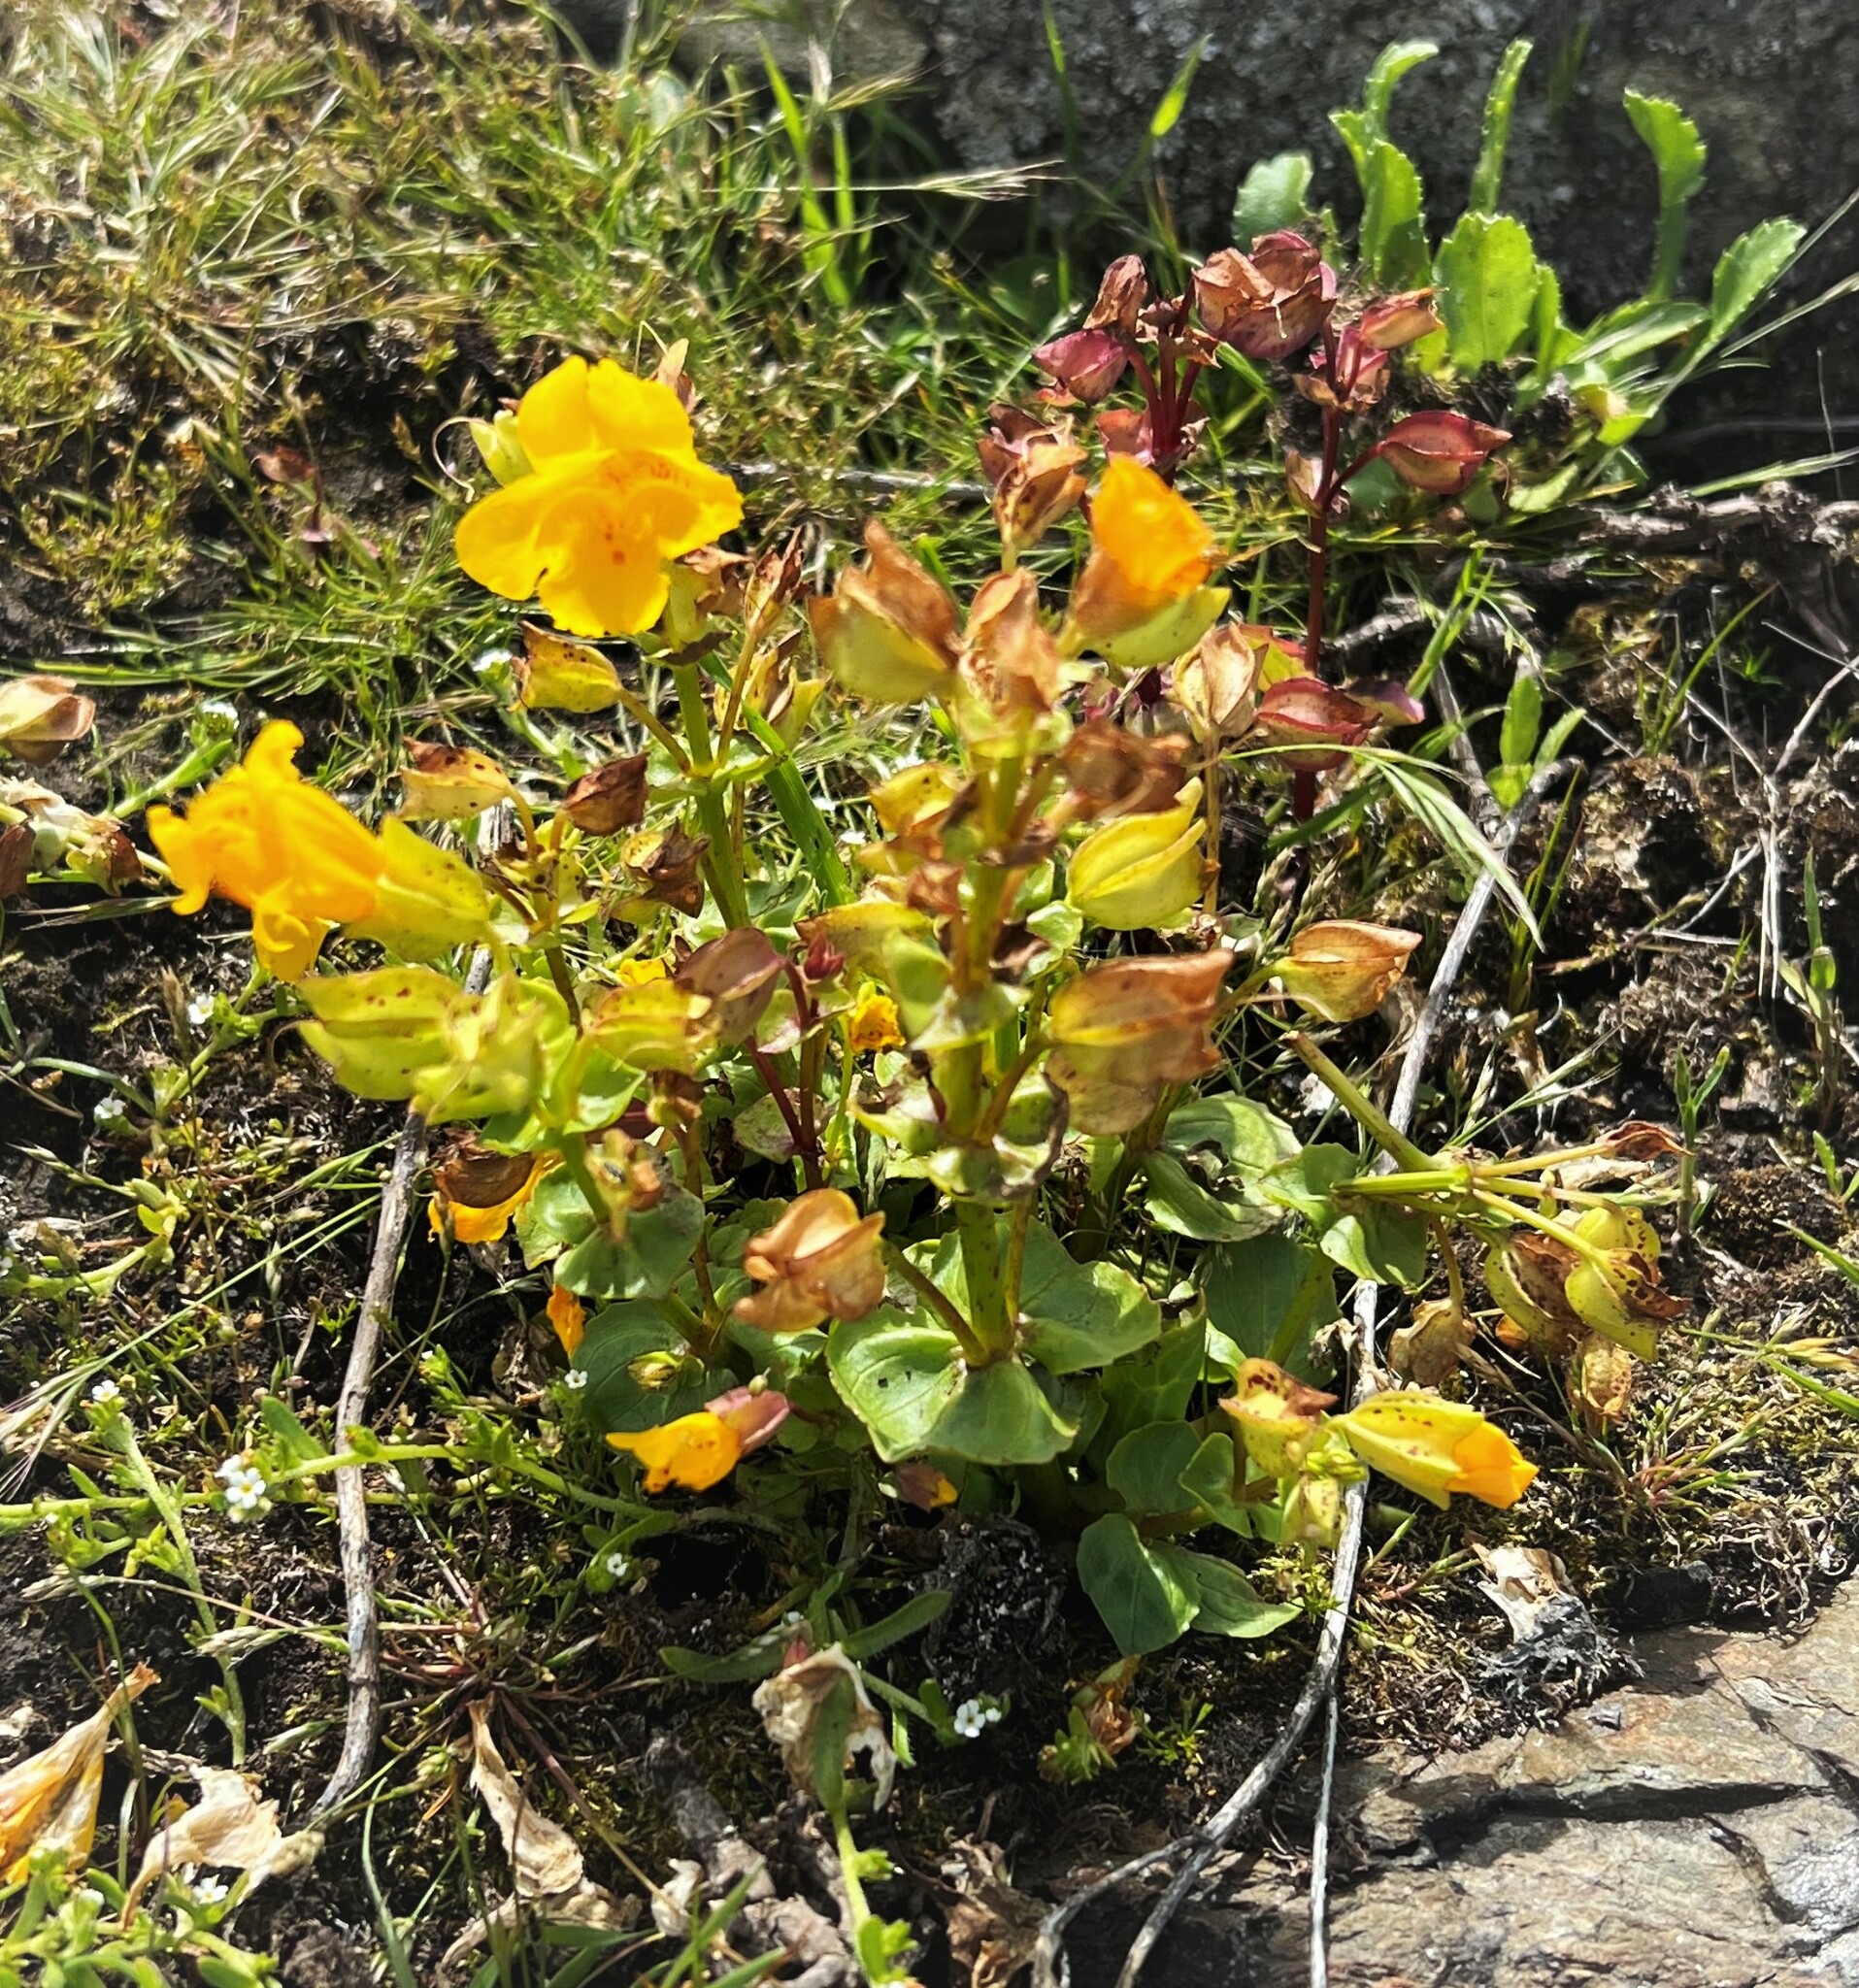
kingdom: Plantae
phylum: Tracheophyta
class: Magnoliopsida
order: Lamiales
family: Phrymaceae
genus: Erythranthe
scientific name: Erythranthe guttata
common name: Monkeyflower
